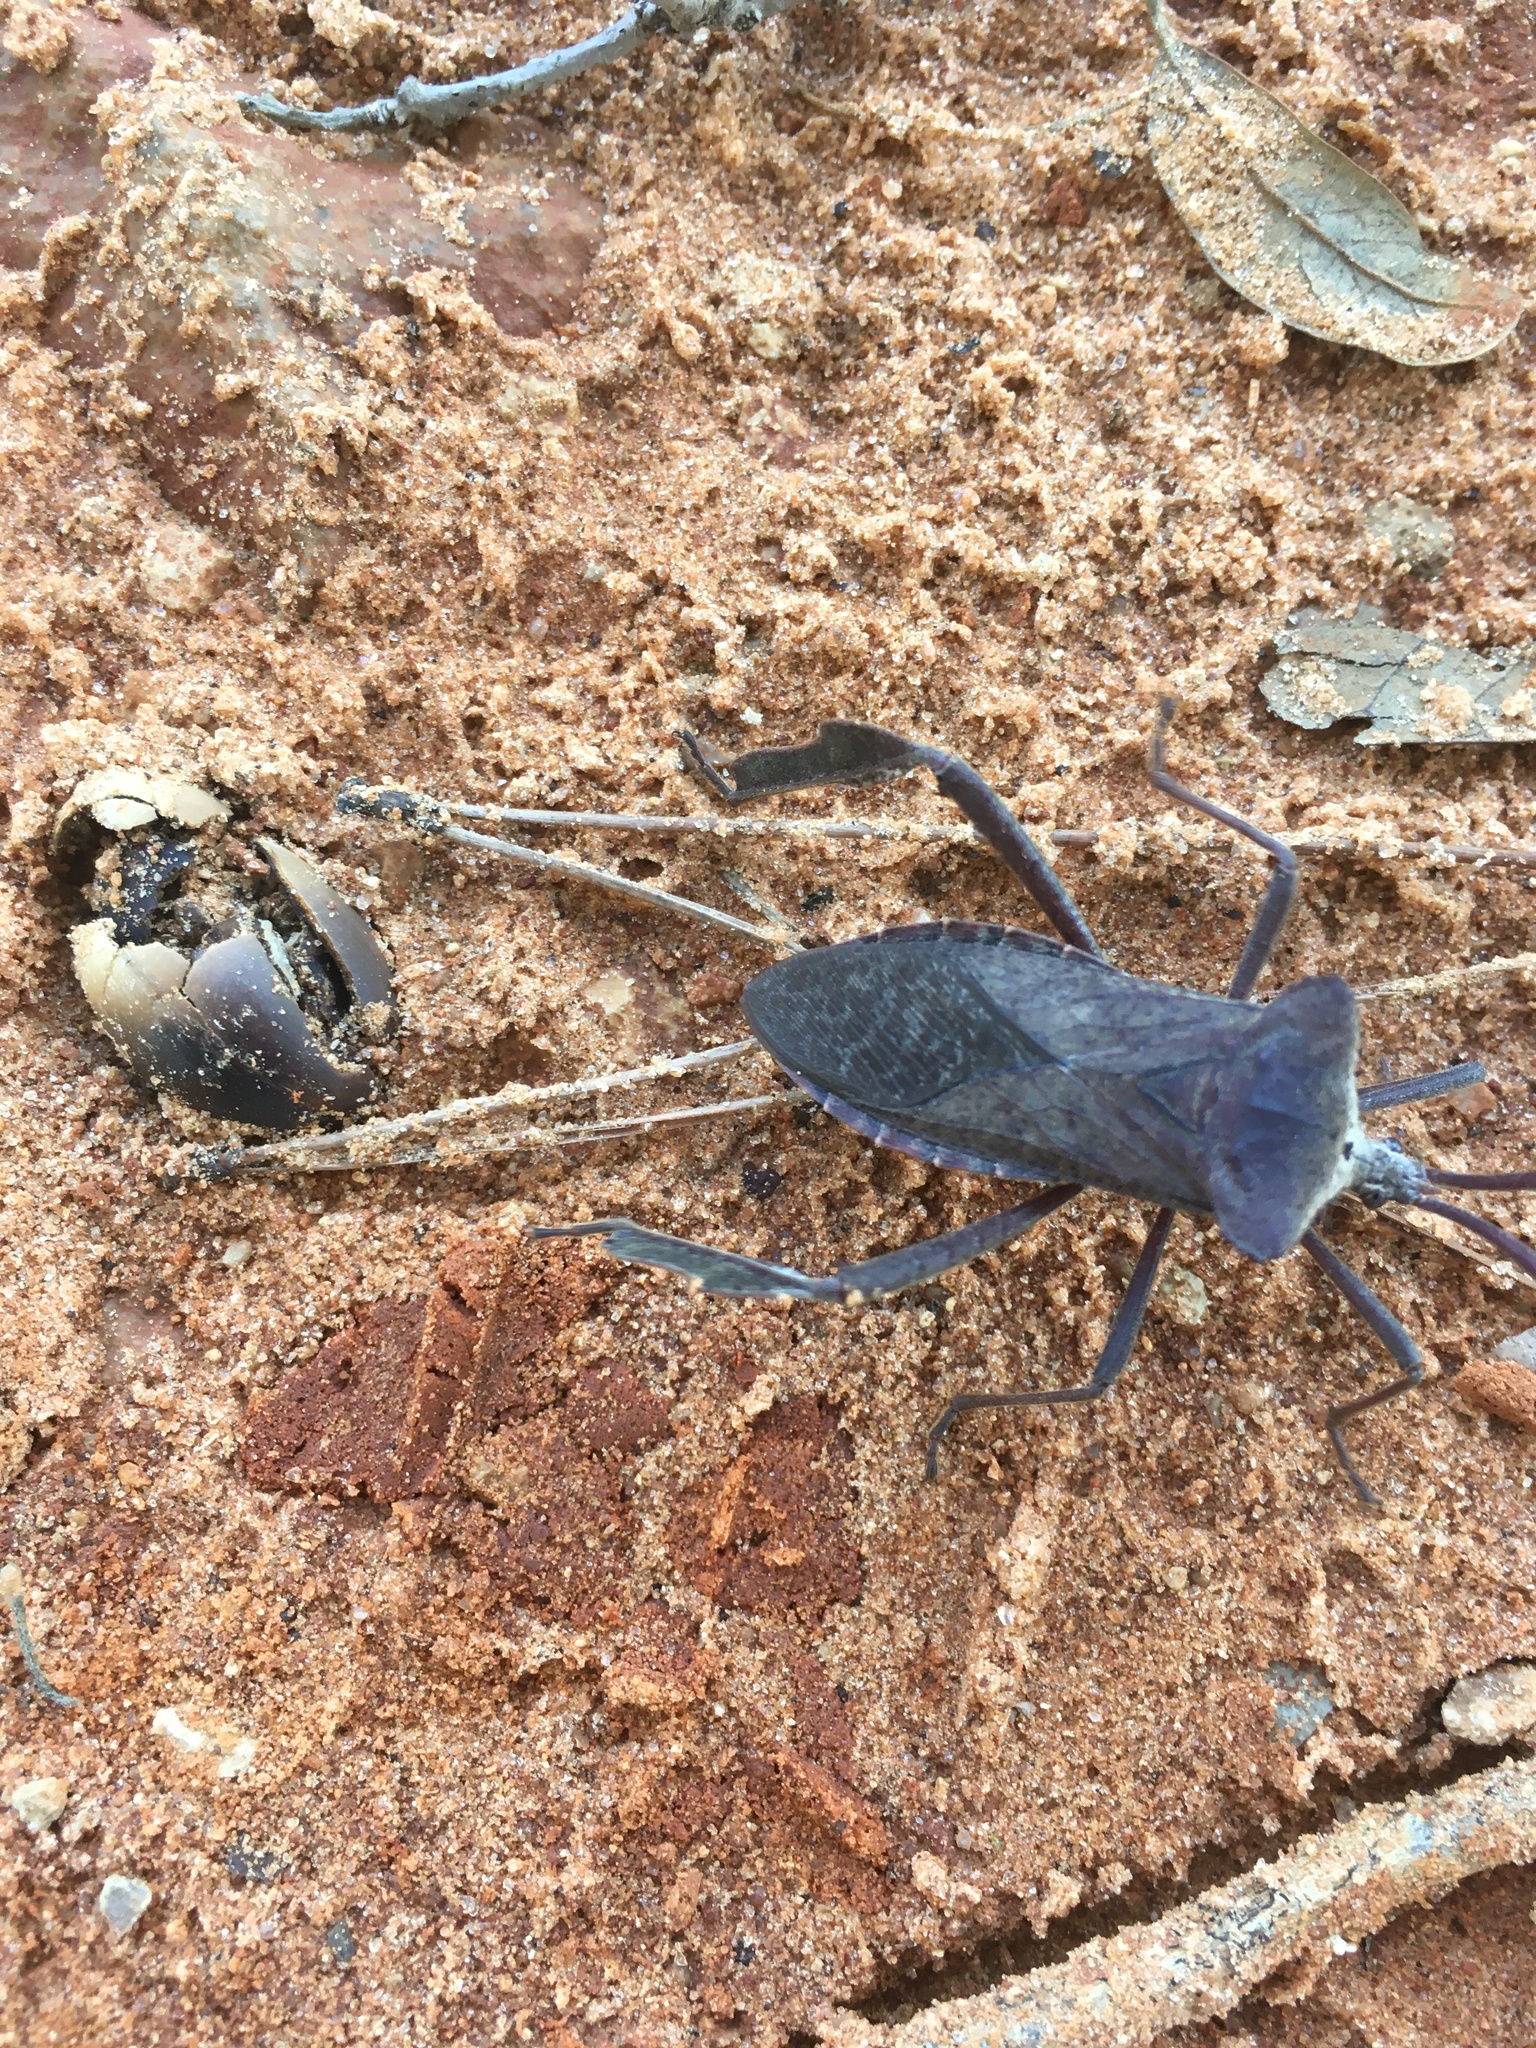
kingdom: Animalia
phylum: Arthropoda
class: Insecta
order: Hemiptera
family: Coreidae
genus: Acanthocephala
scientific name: Acanthocephala declivis
